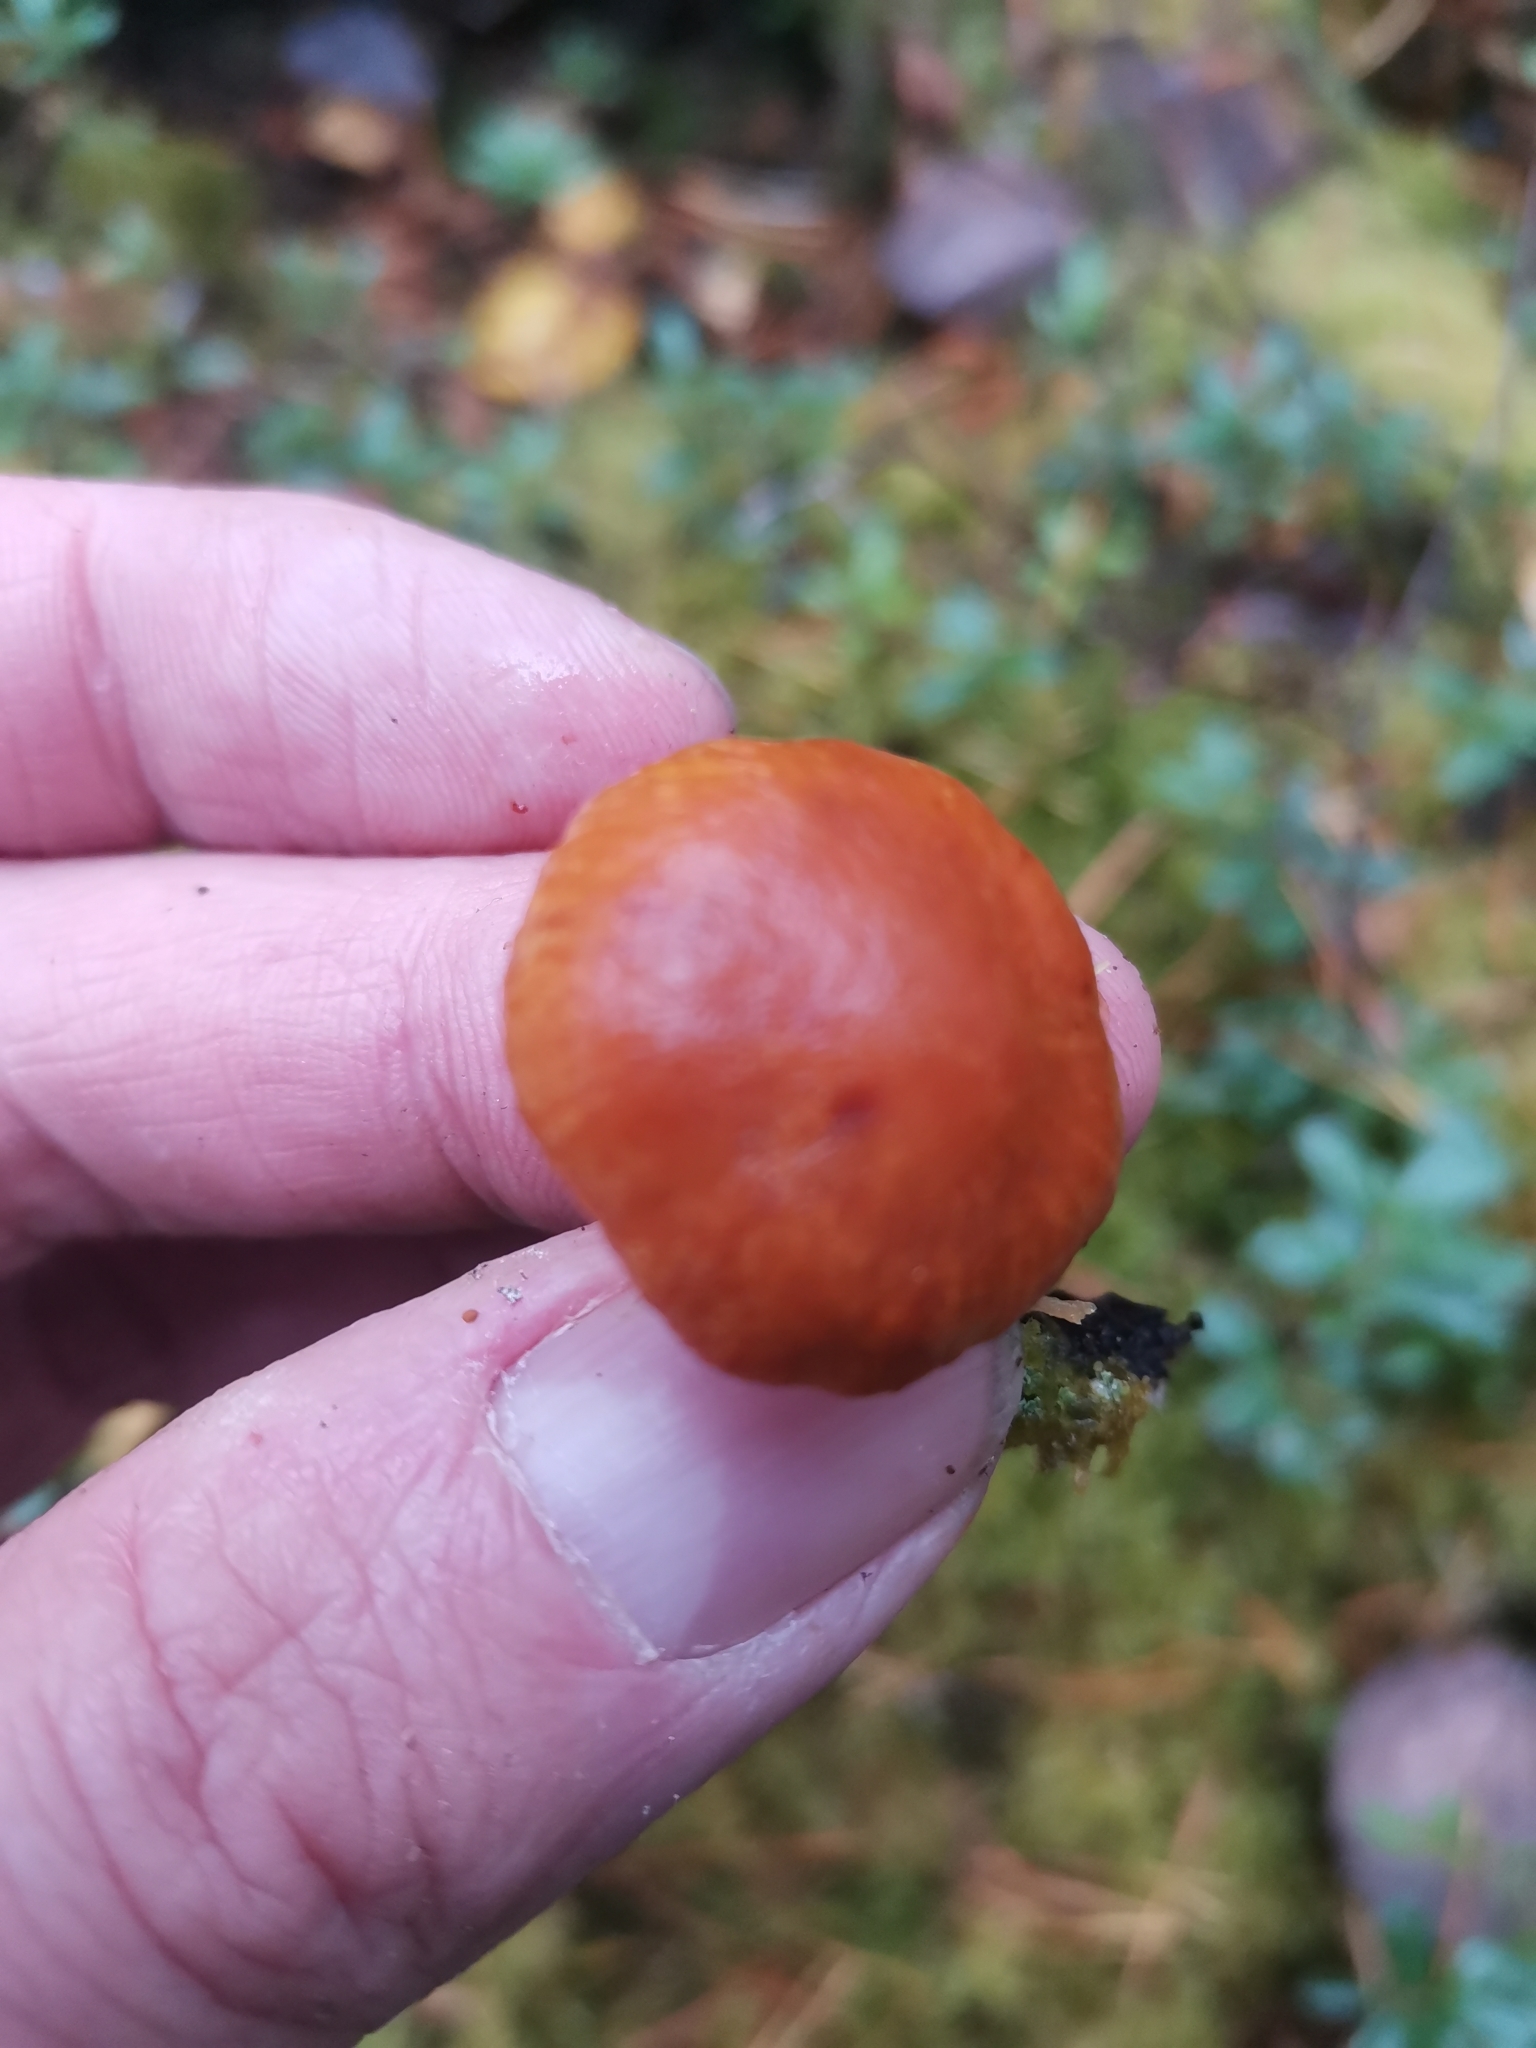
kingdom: Fungi
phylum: Basidiomycota
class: Agaricomycetes
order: Agaricales
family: Hymenogastraceae
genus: Gymnopilus
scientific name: Gymnopilus penetrans
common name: Common rustgill
